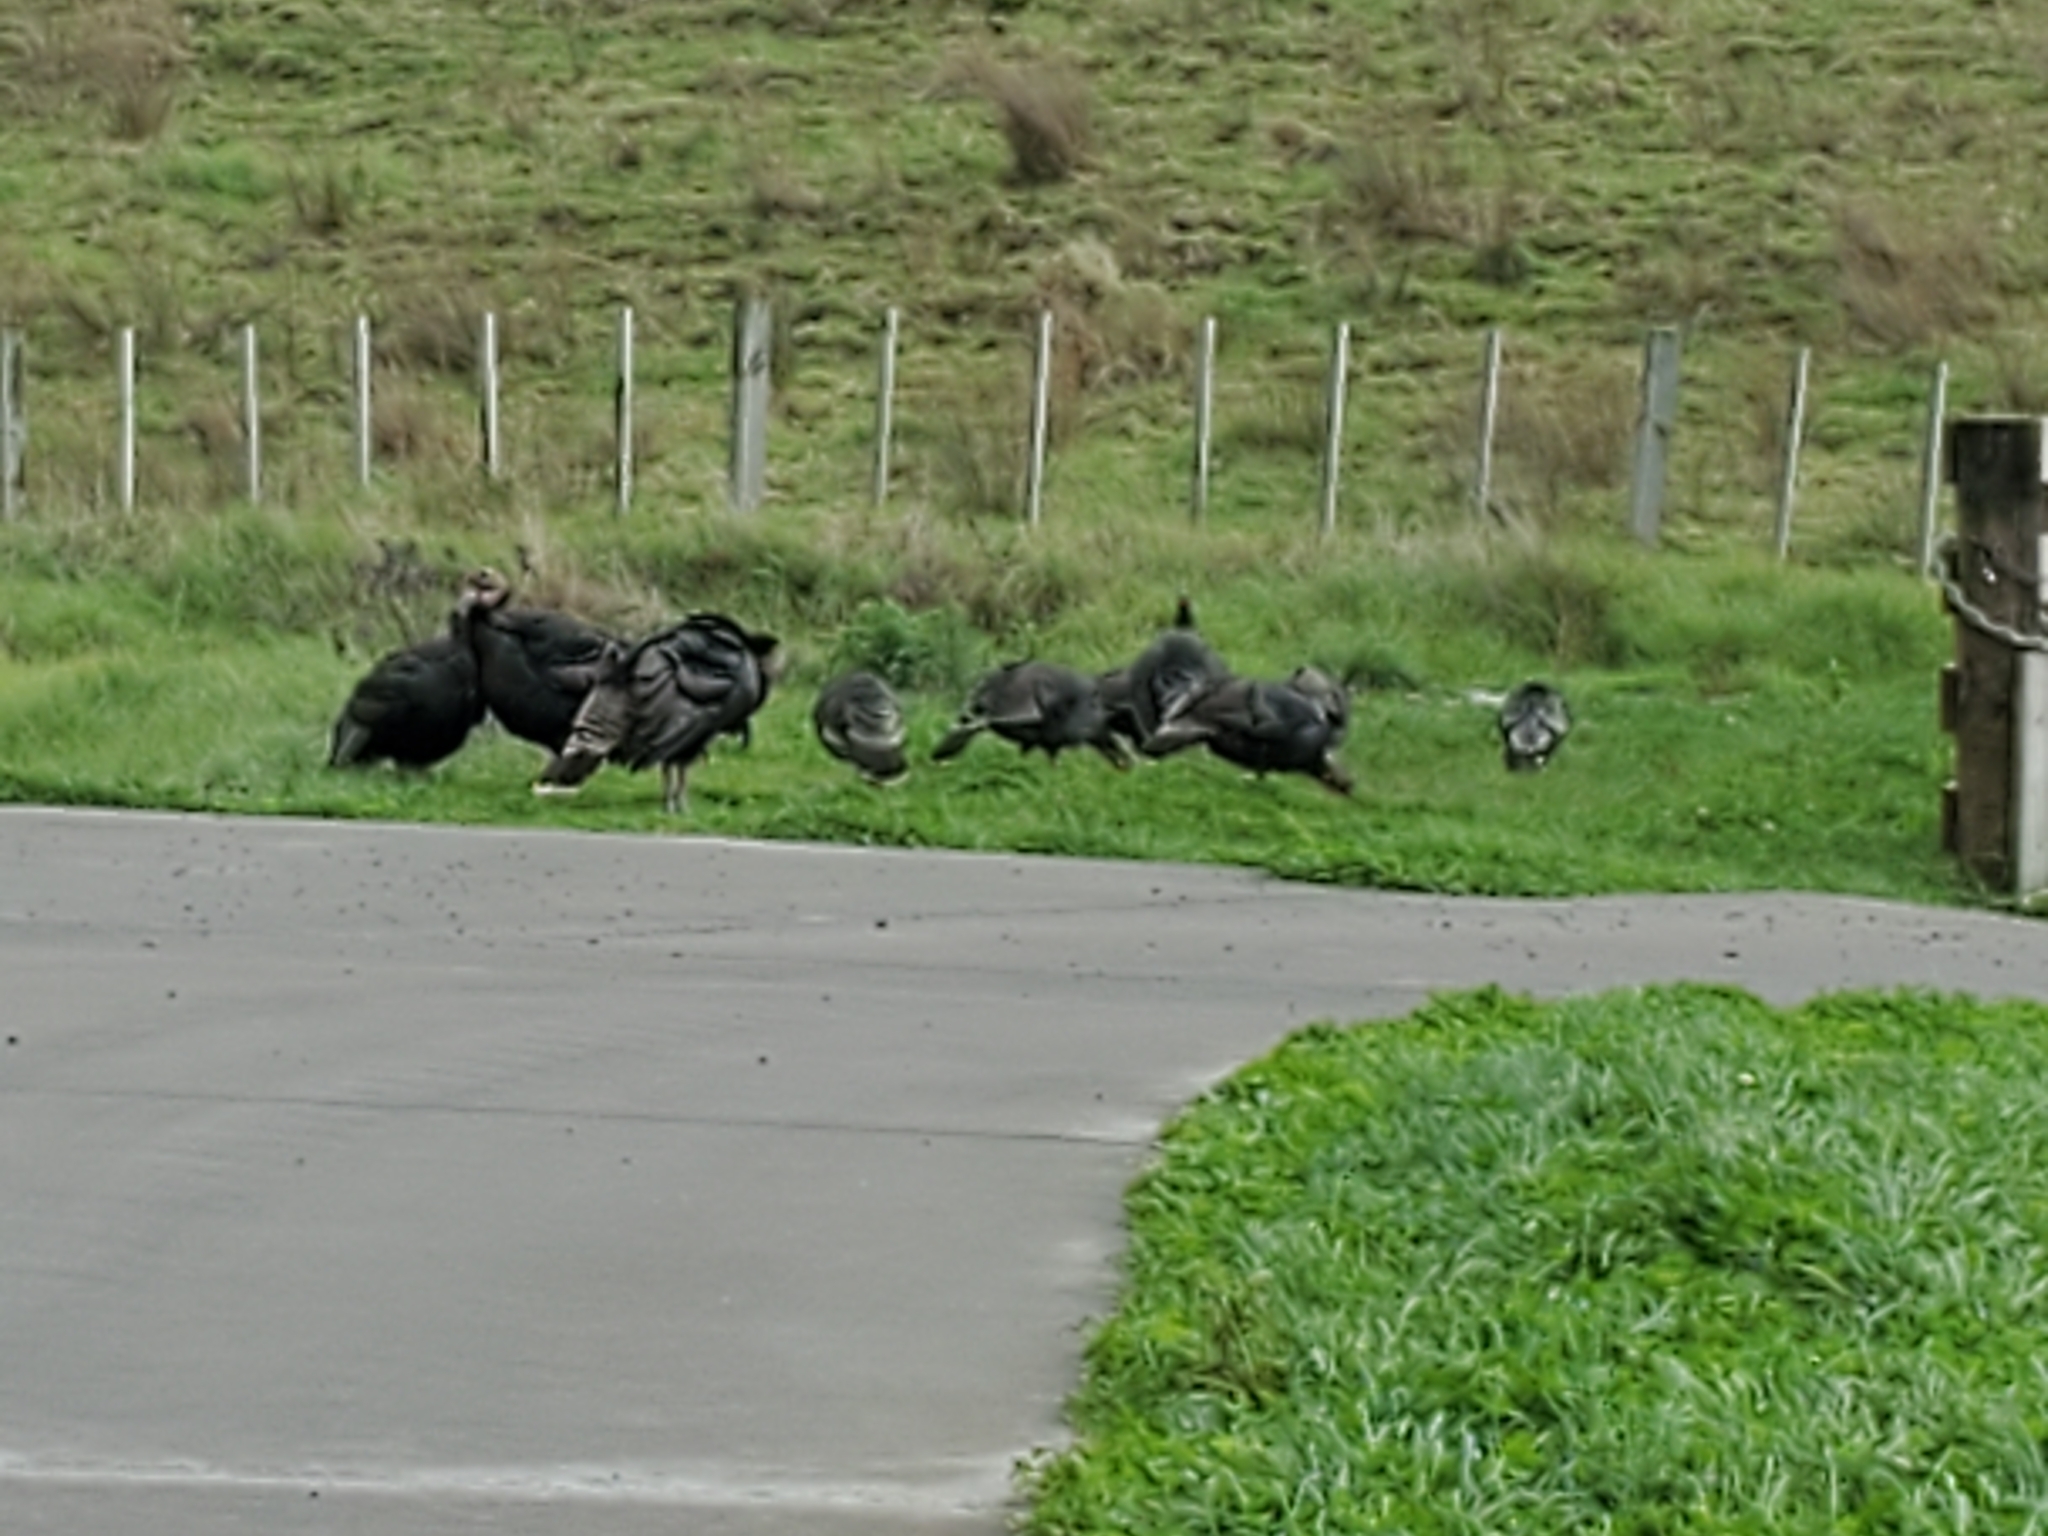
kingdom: Animalia
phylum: Chordata
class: Aves
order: Galliformes
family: Phasianidae
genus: Meleagris
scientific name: Meleagris gallopavo
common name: Wild turkey
